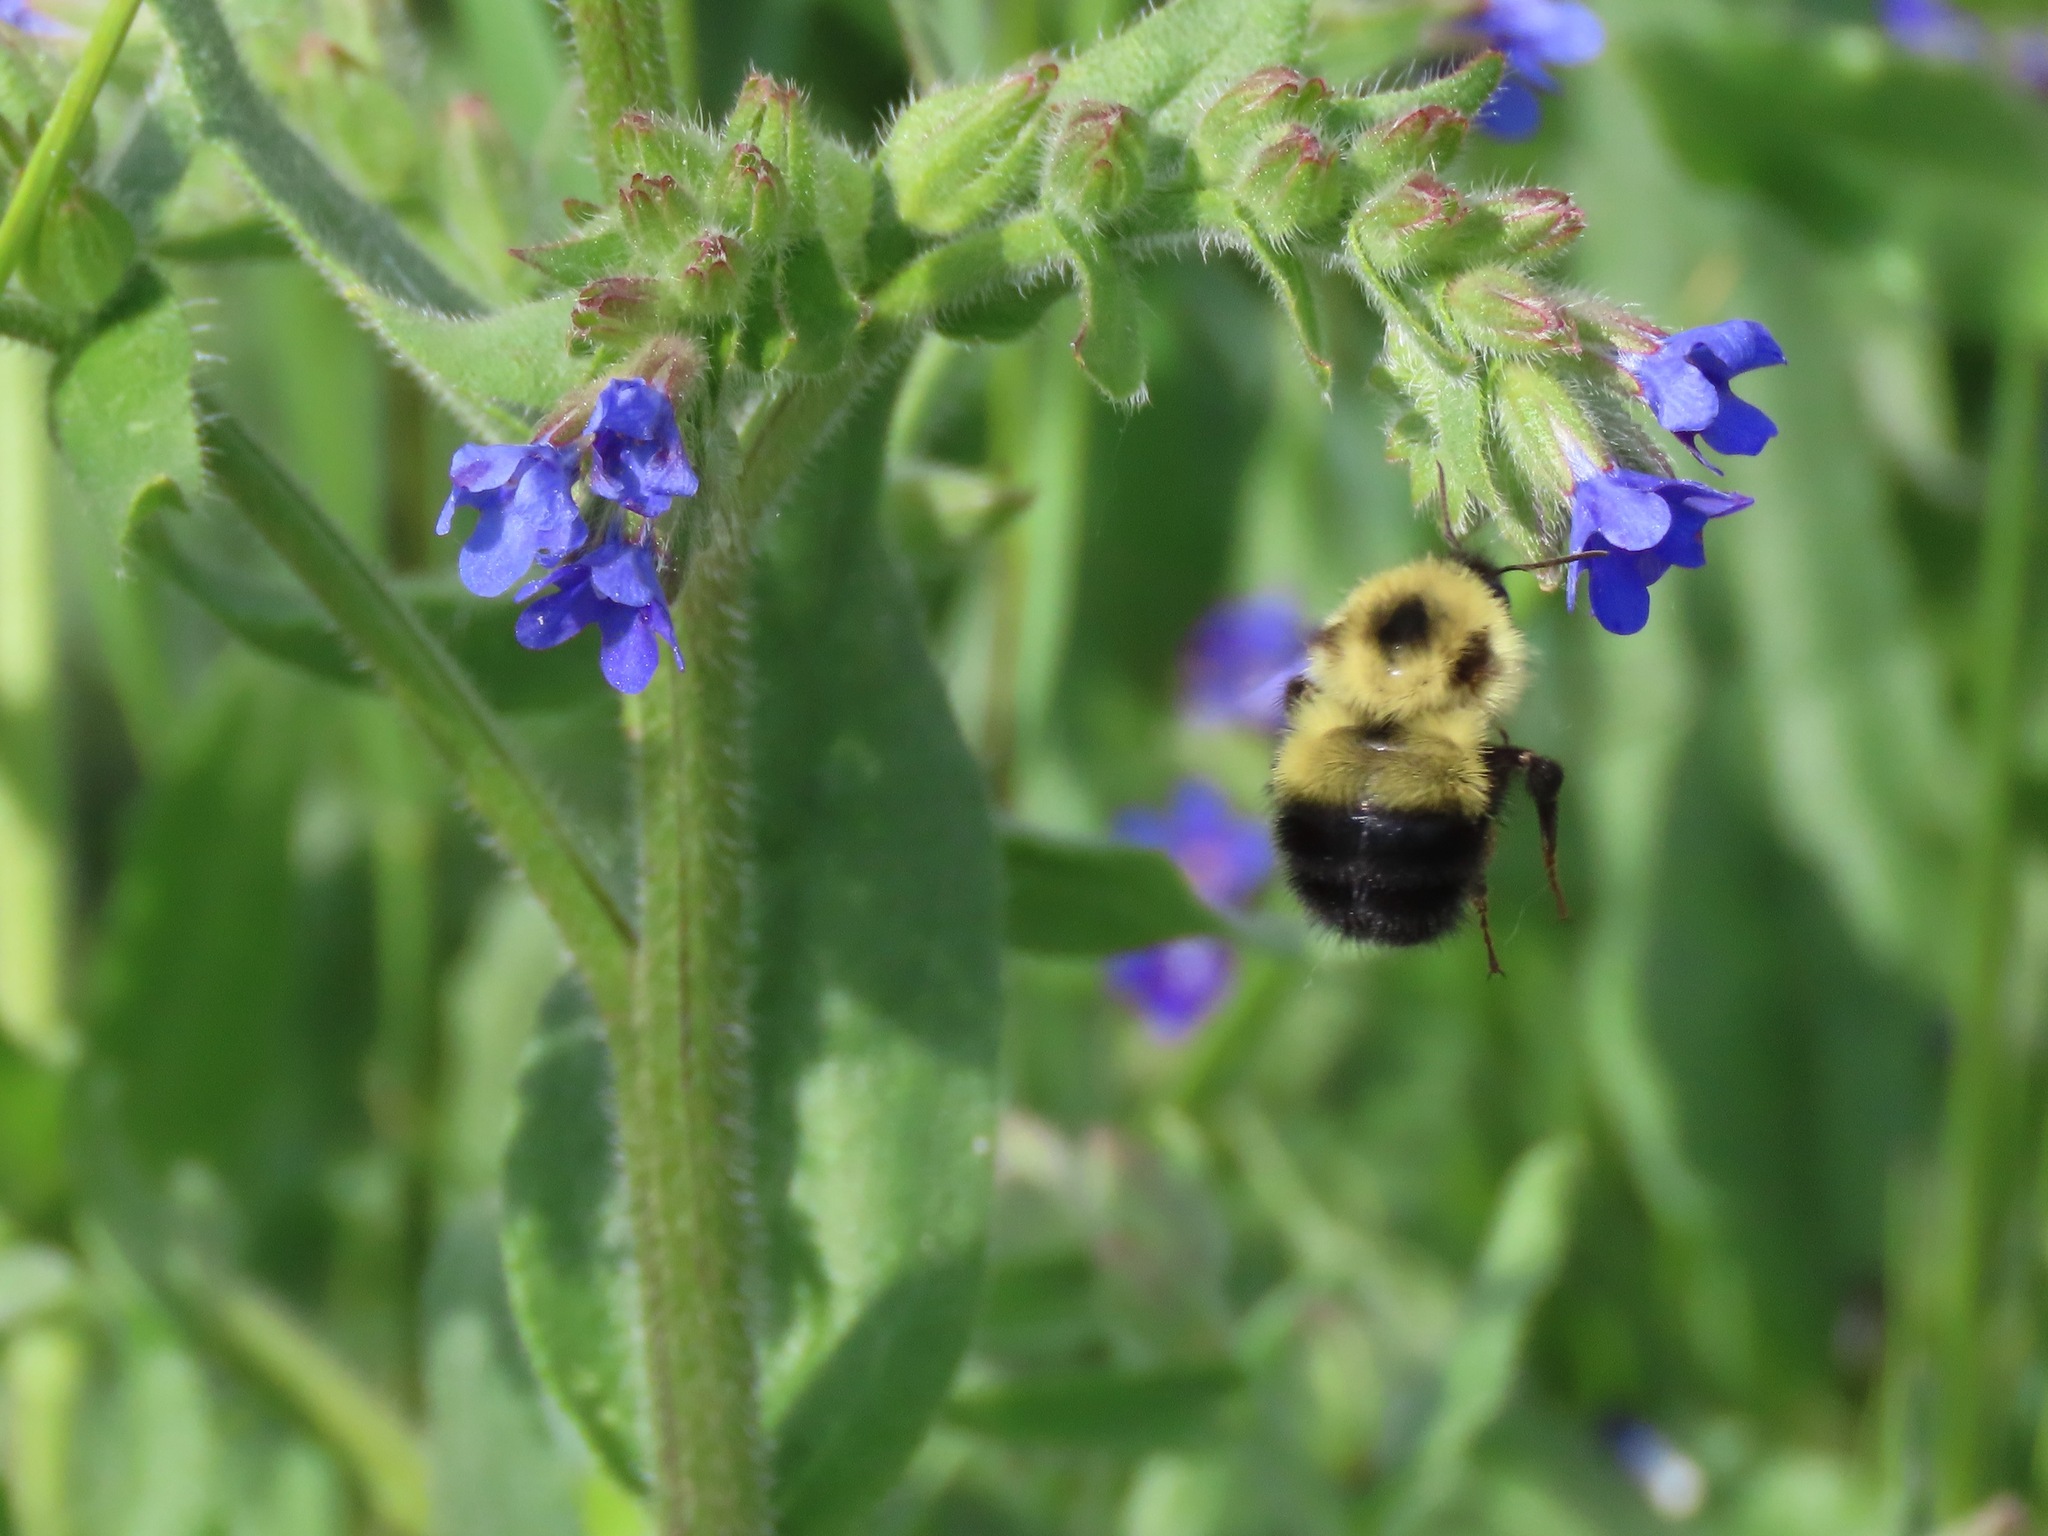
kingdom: Animalia
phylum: Arthropoda
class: Insecta
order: Hymenoptera
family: Apidae
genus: Bombus
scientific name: Bombus vagans
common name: Half-black bumble bee
